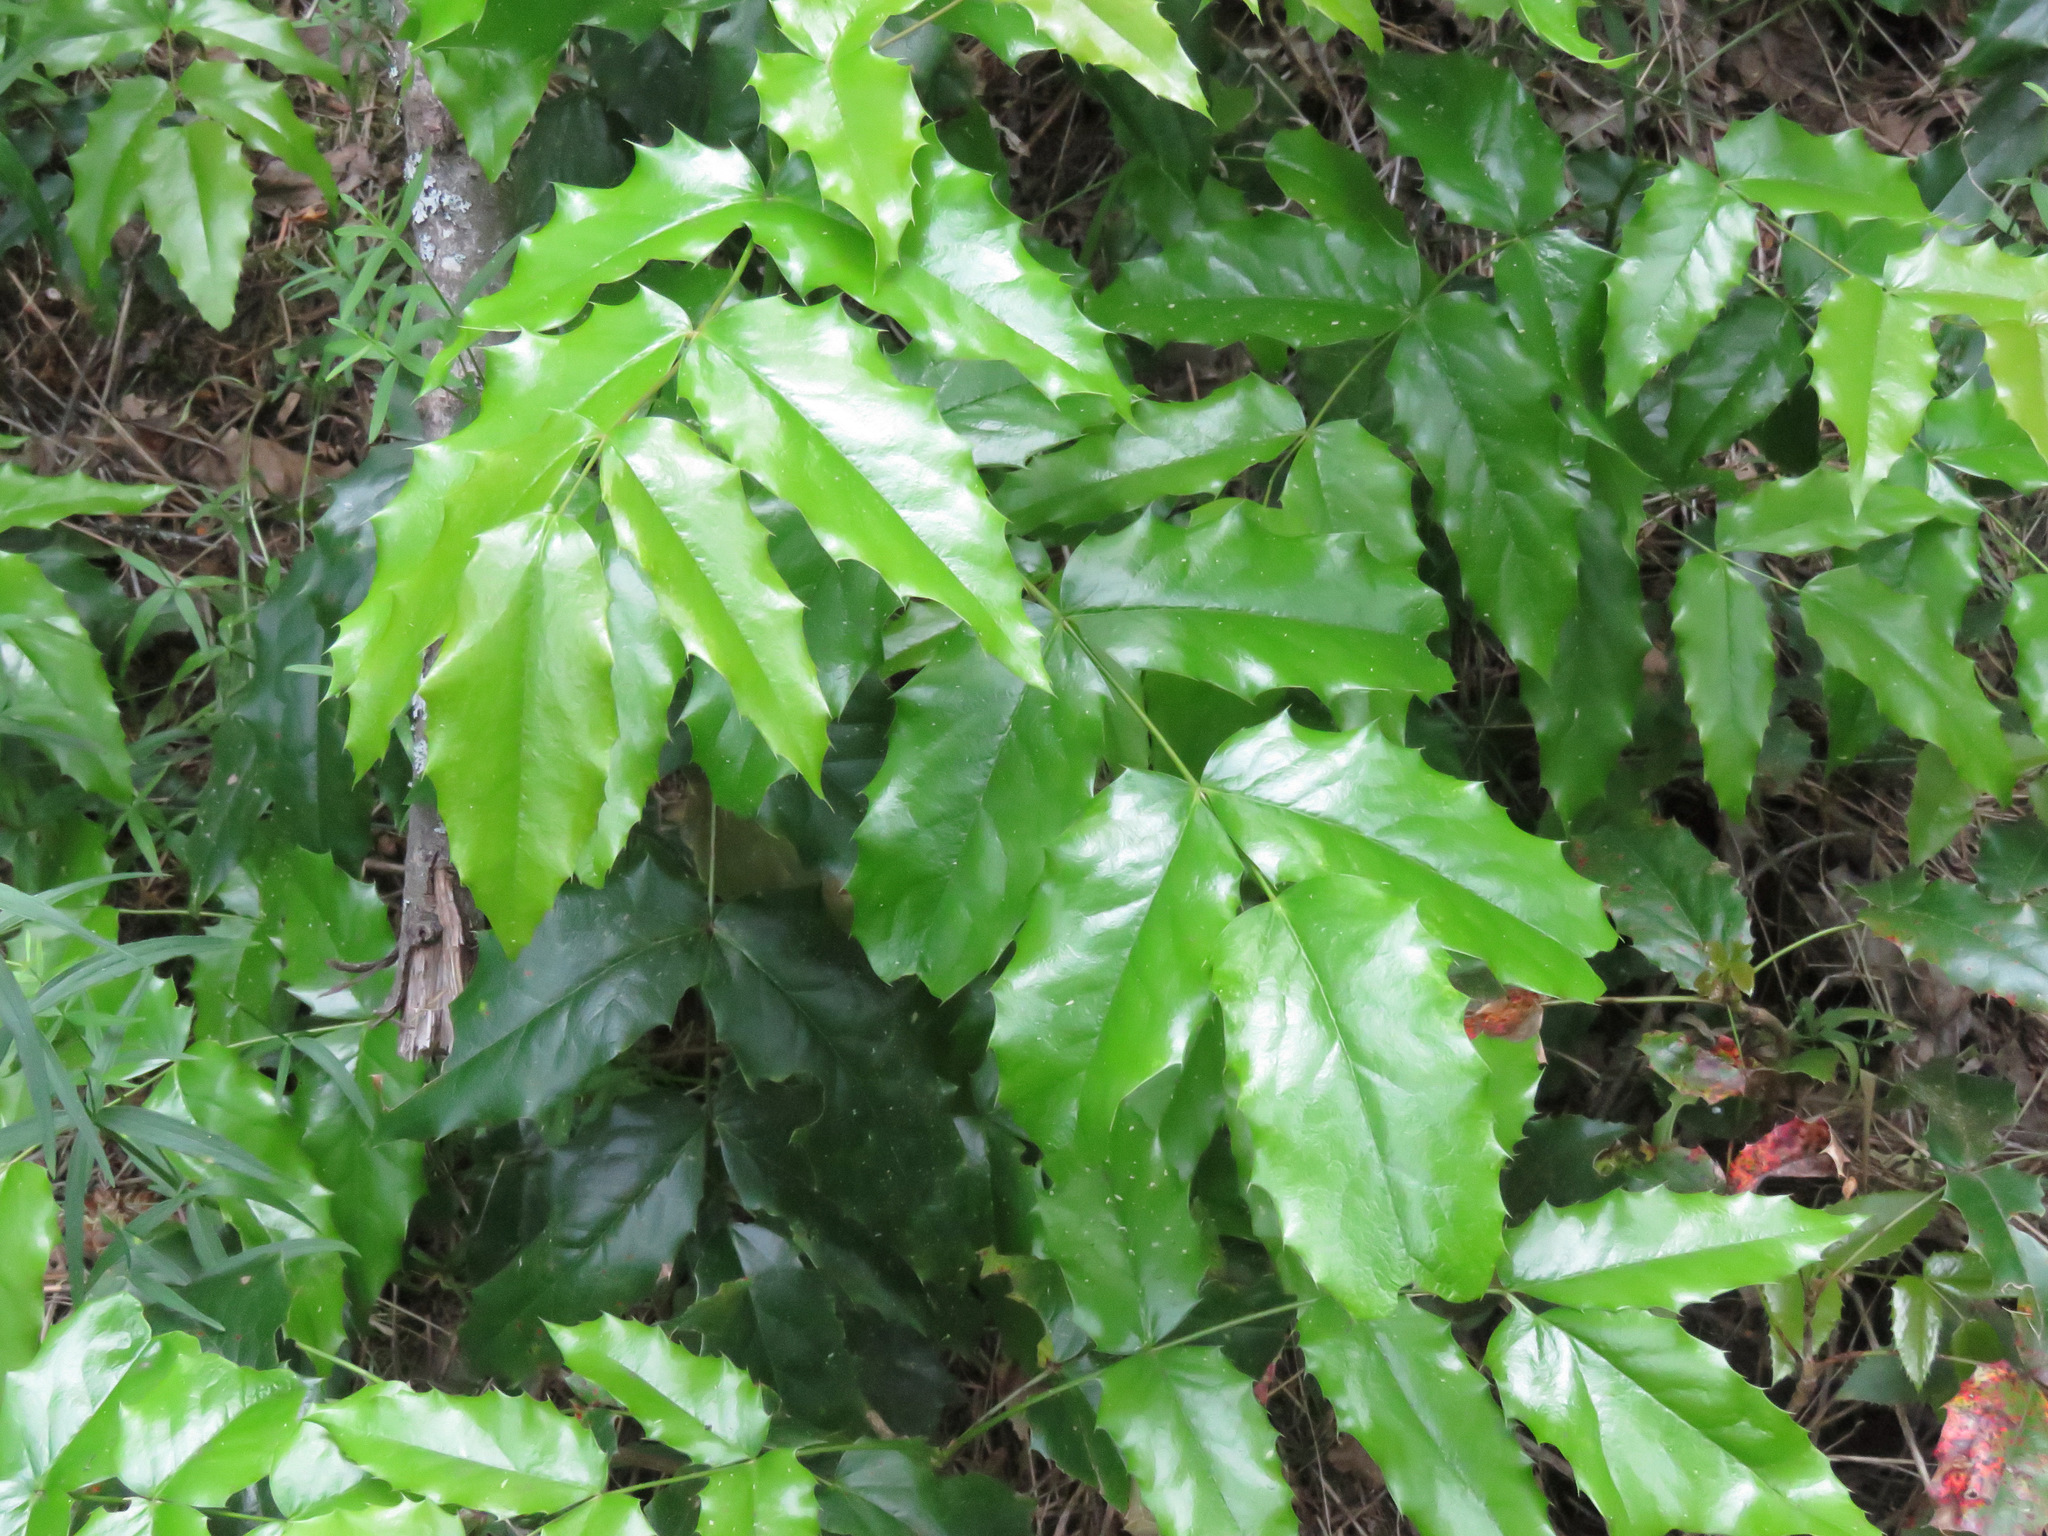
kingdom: Plantae
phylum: Tracheophyta
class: Magnoliopsida
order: Ranunculales
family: Berberidaceae
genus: Mahonia
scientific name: Mahonia aquifolium
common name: Oregon-grape
